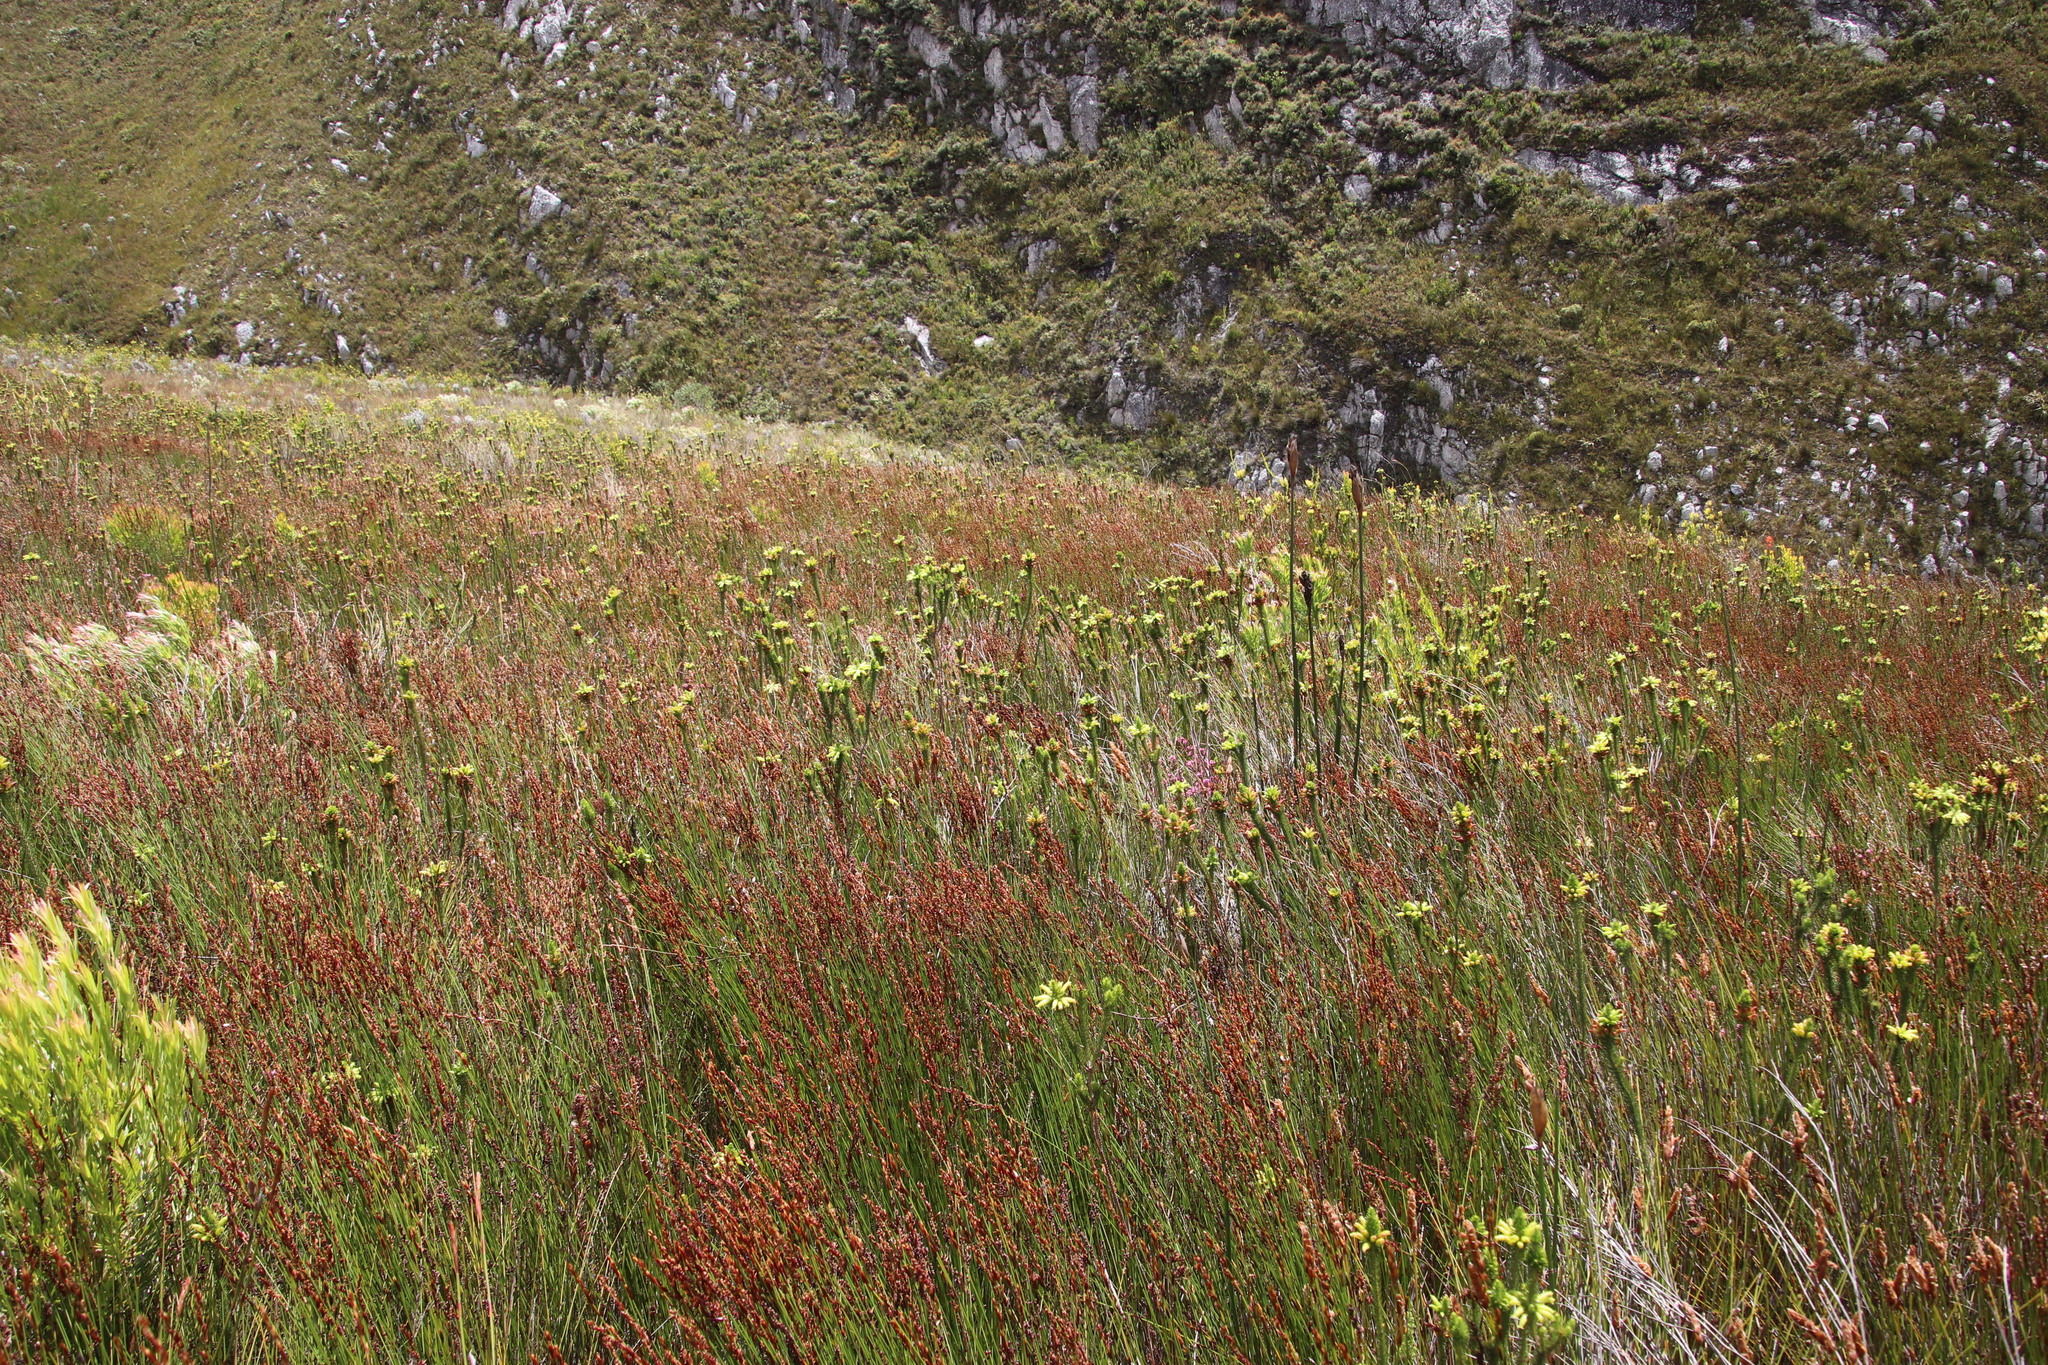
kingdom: Plantae
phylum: Tracheophyta
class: Magnoliopsida
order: Ericales
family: Ericaceae
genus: Erica
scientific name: Erica viscaria
